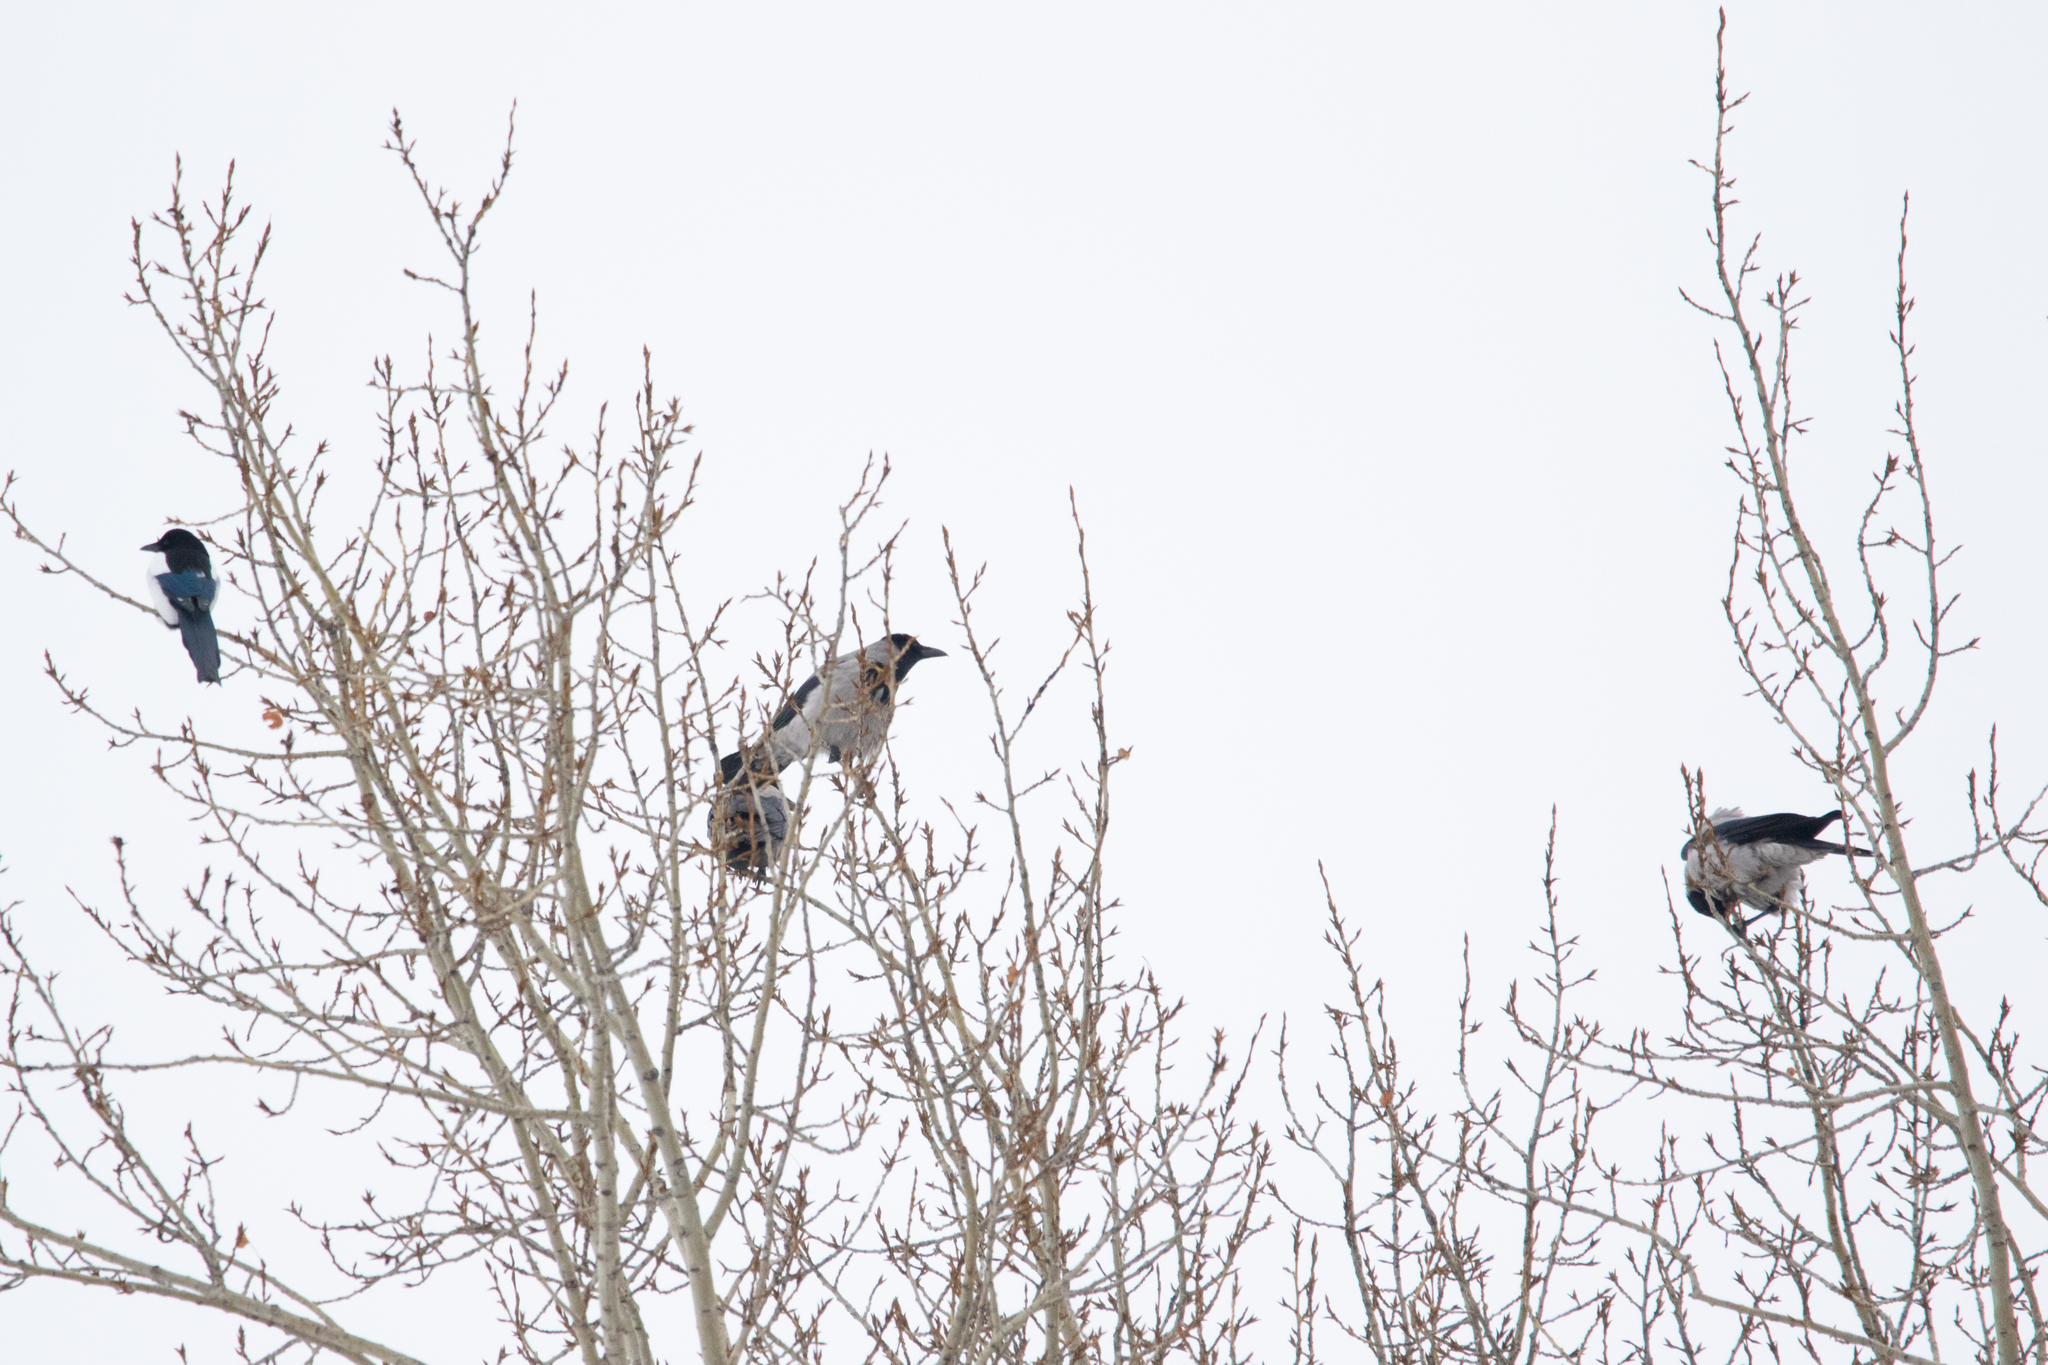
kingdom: Animalia
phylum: Chordata
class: Aves
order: Passeriformes
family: Corvidae
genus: Corvus
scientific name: Corvus cornix
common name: Hooded crow
